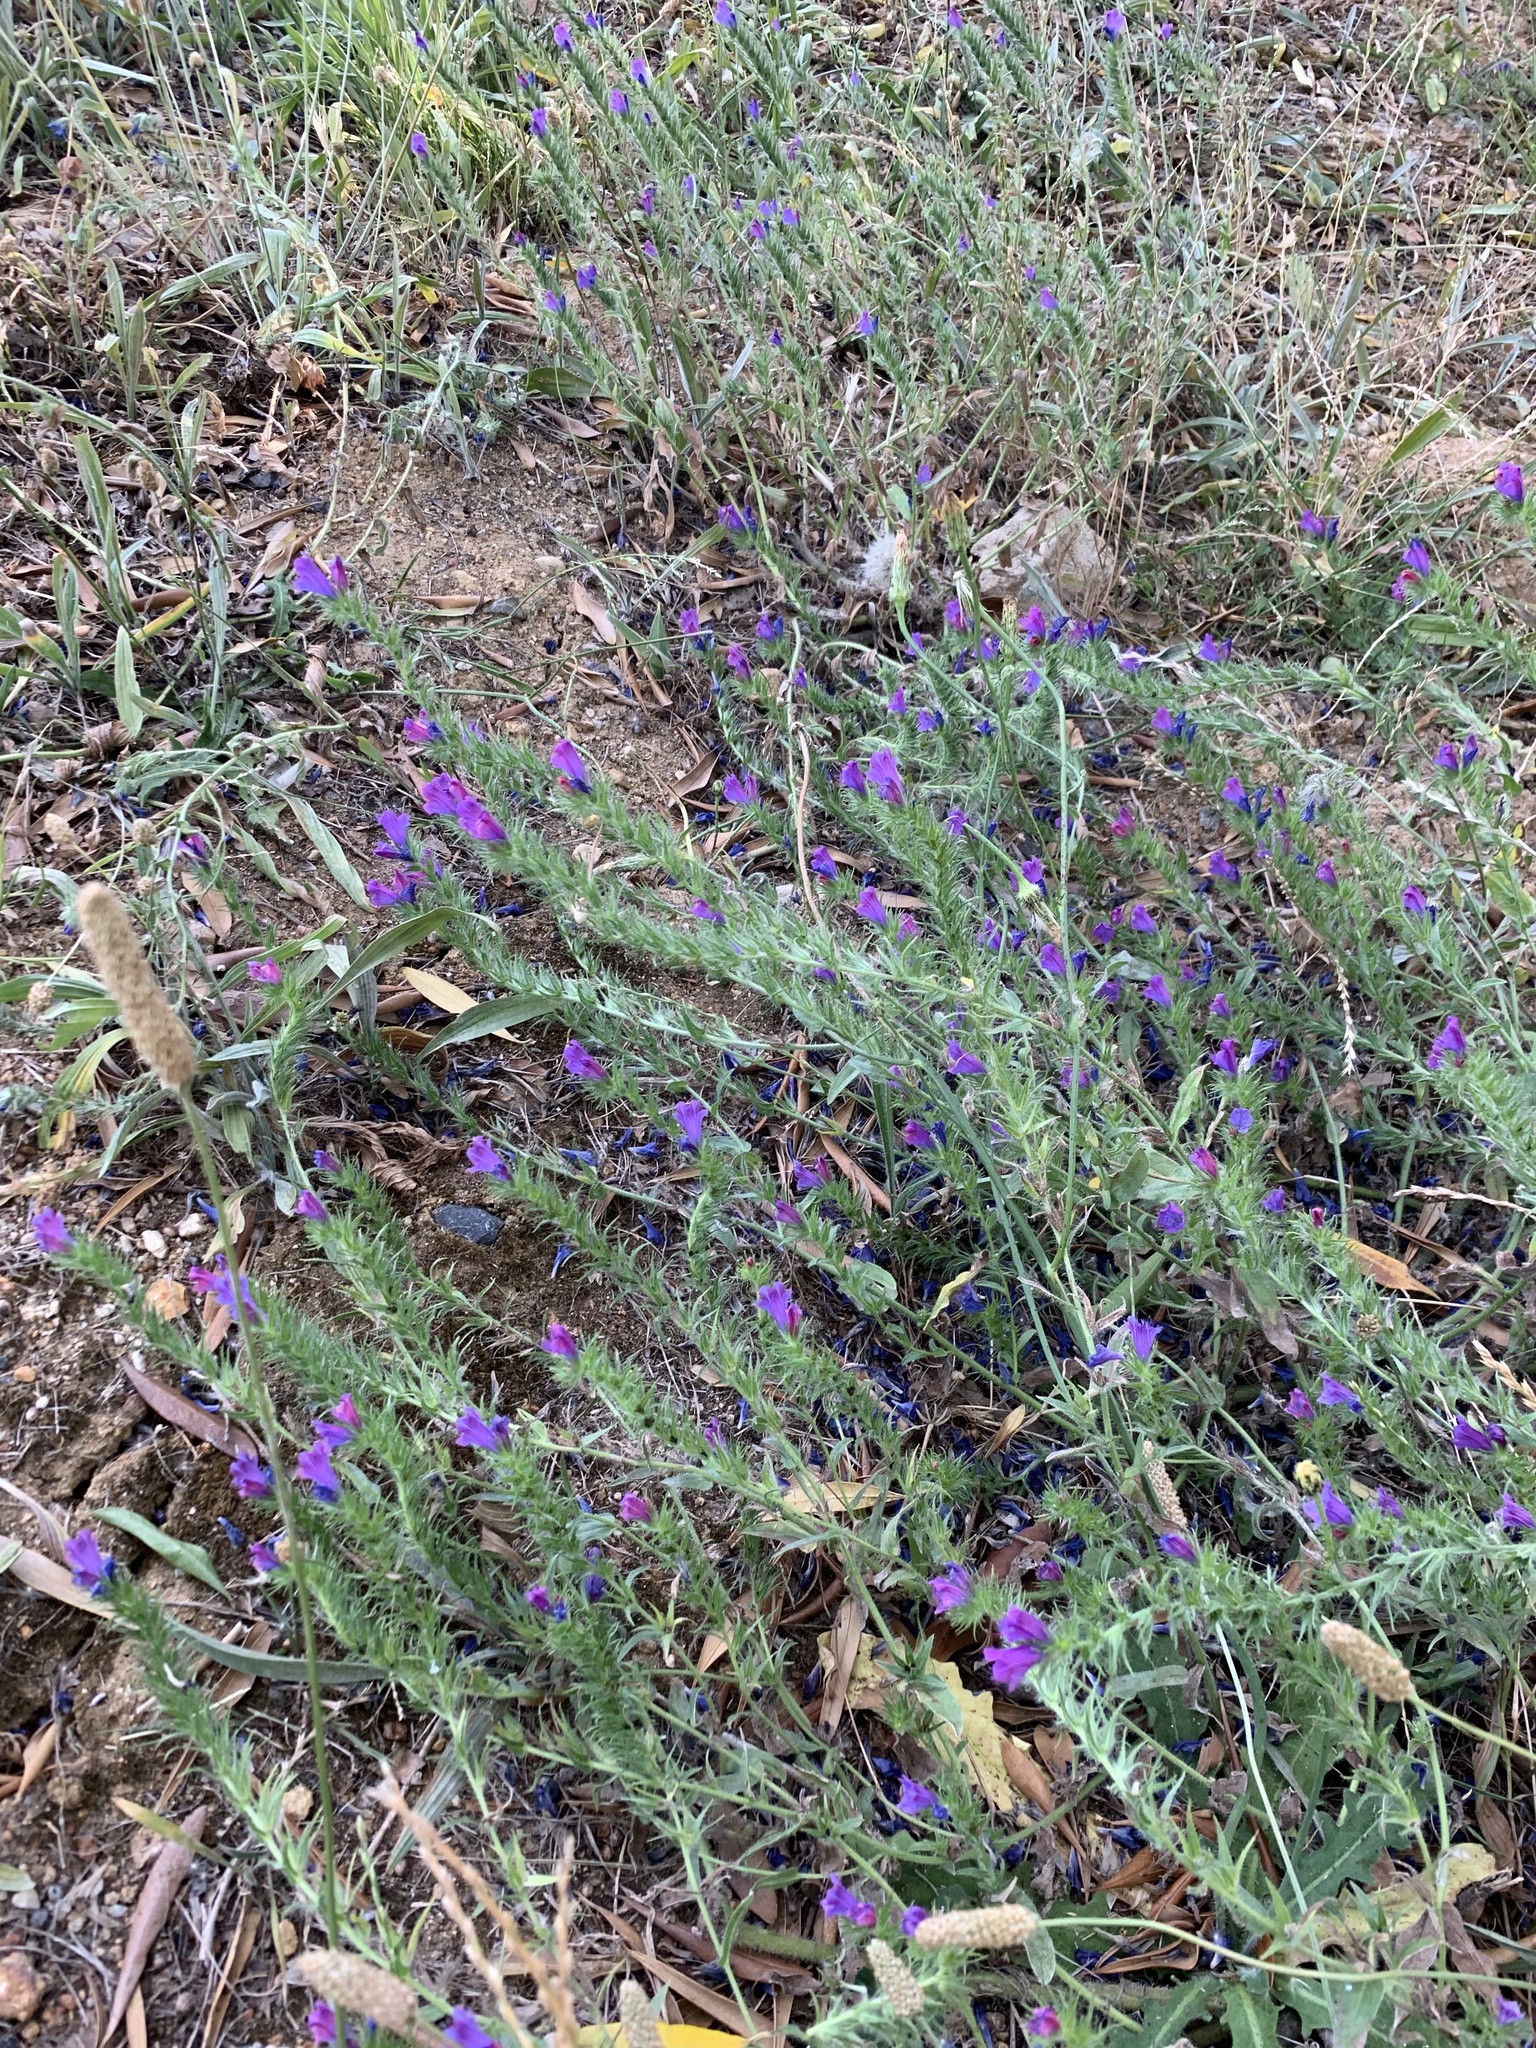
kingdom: Plantae
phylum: Tracheophyta
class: Magnoliopsida
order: Boraginales
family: Boraginaceae
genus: Echium
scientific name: Echium plantagineum
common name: Purple viper's-bugloss
